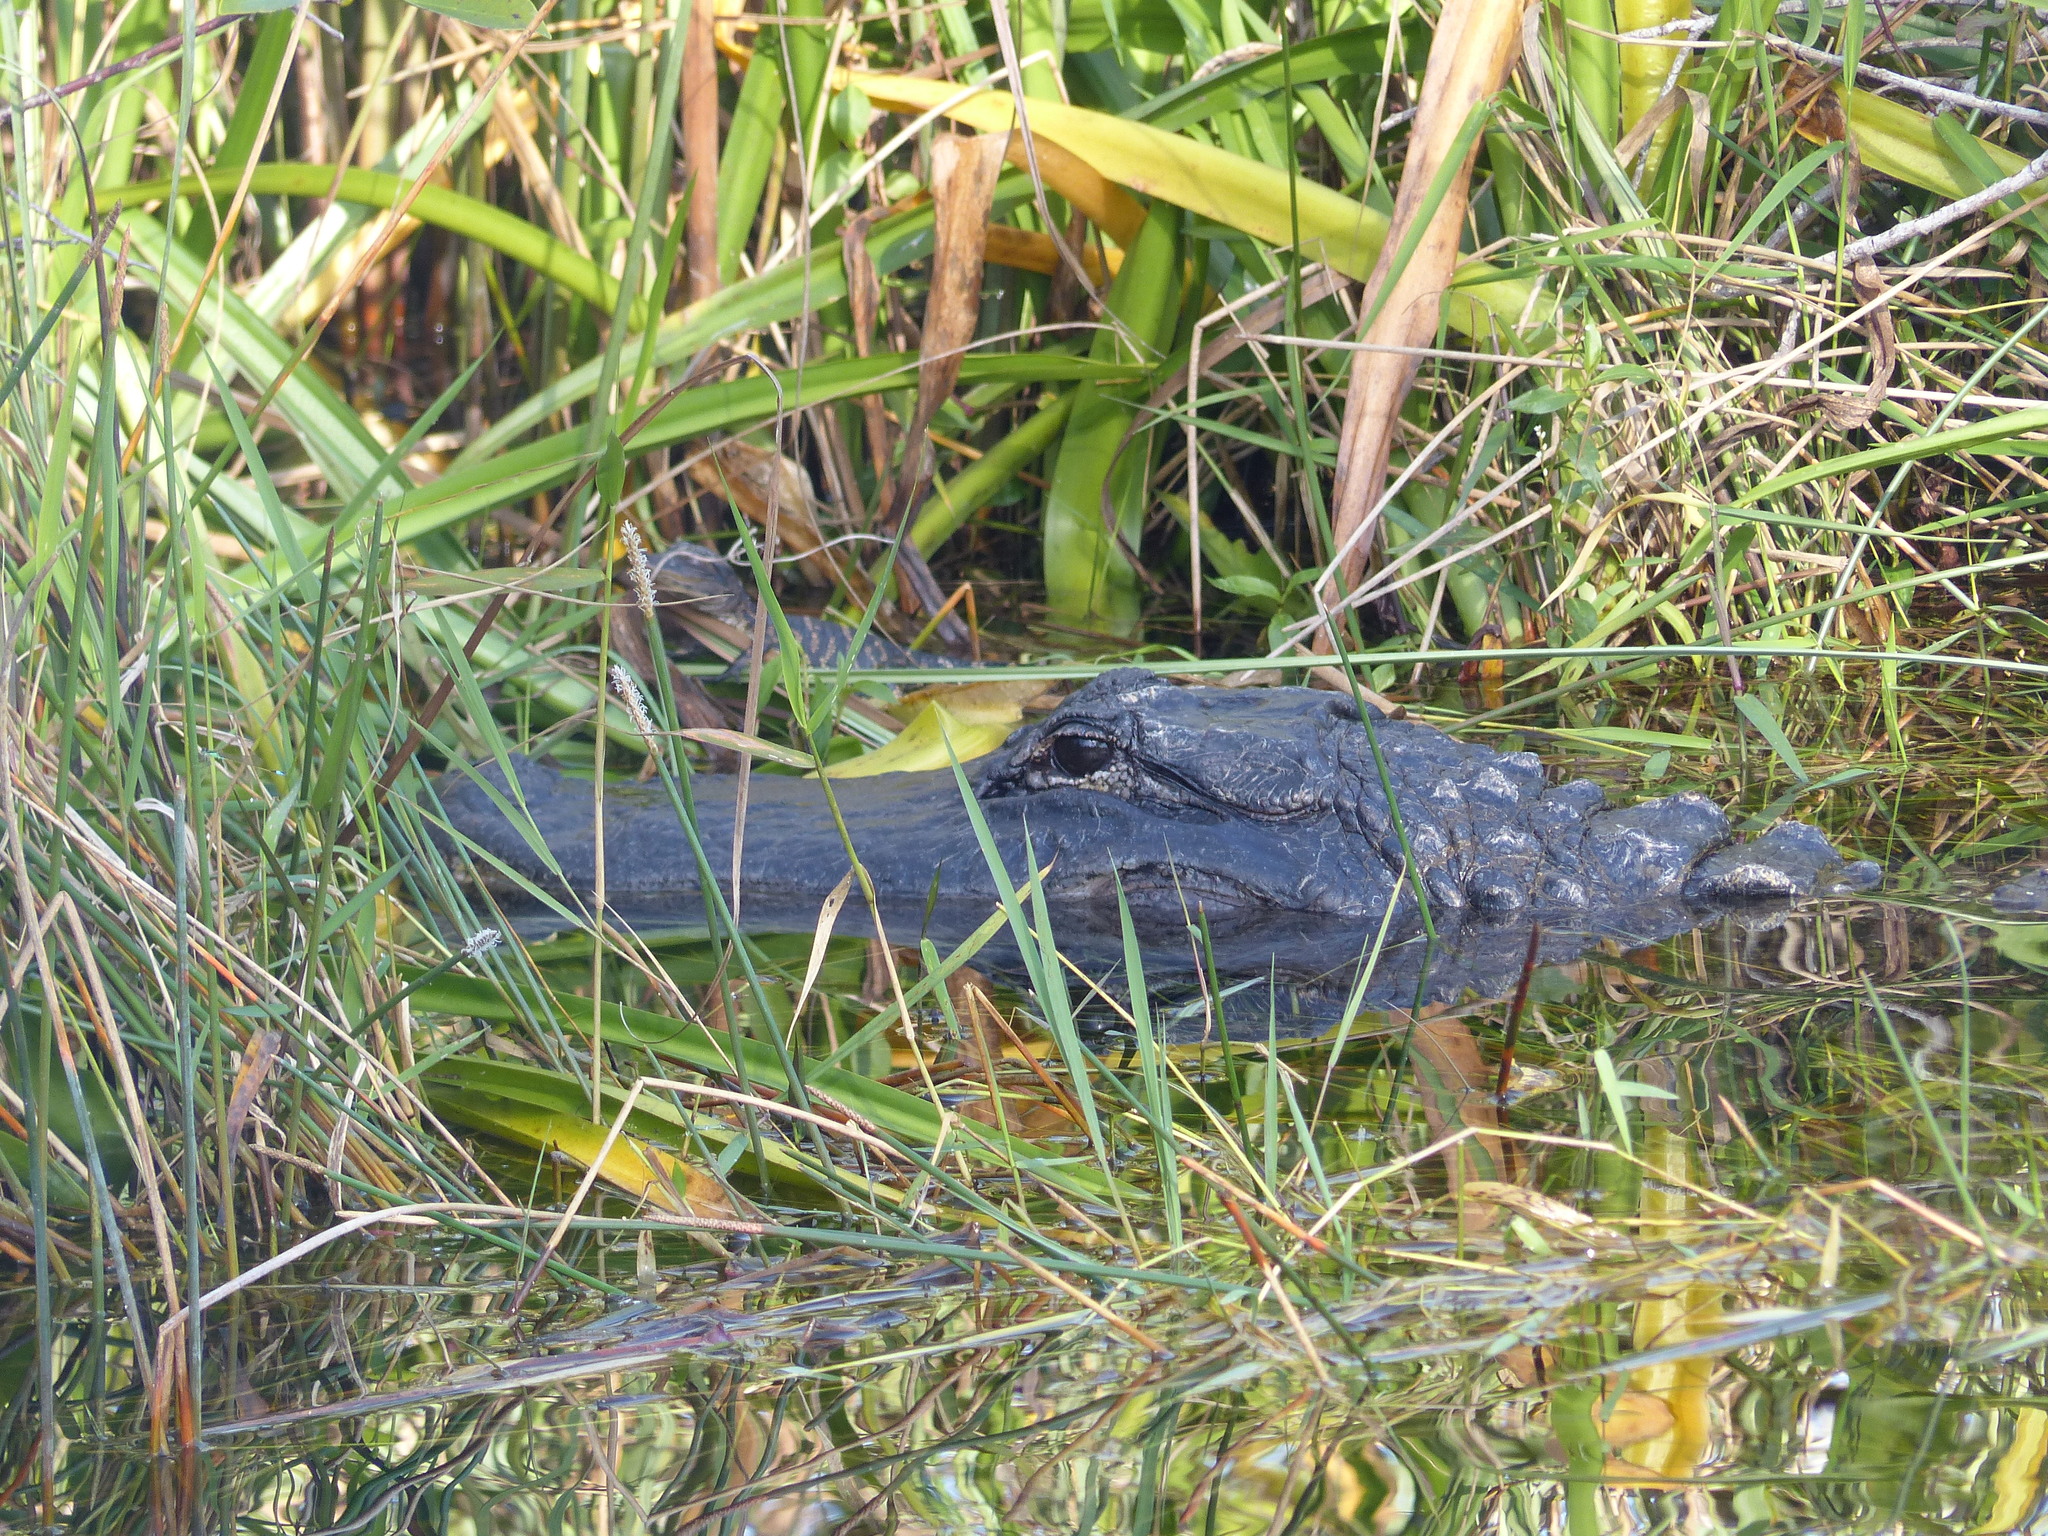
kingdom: Animalia
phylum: Chordata
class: Crocodylia
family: Alligatoridae
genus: Alligator
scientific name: Alligator mississippiensis
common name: American alligator
